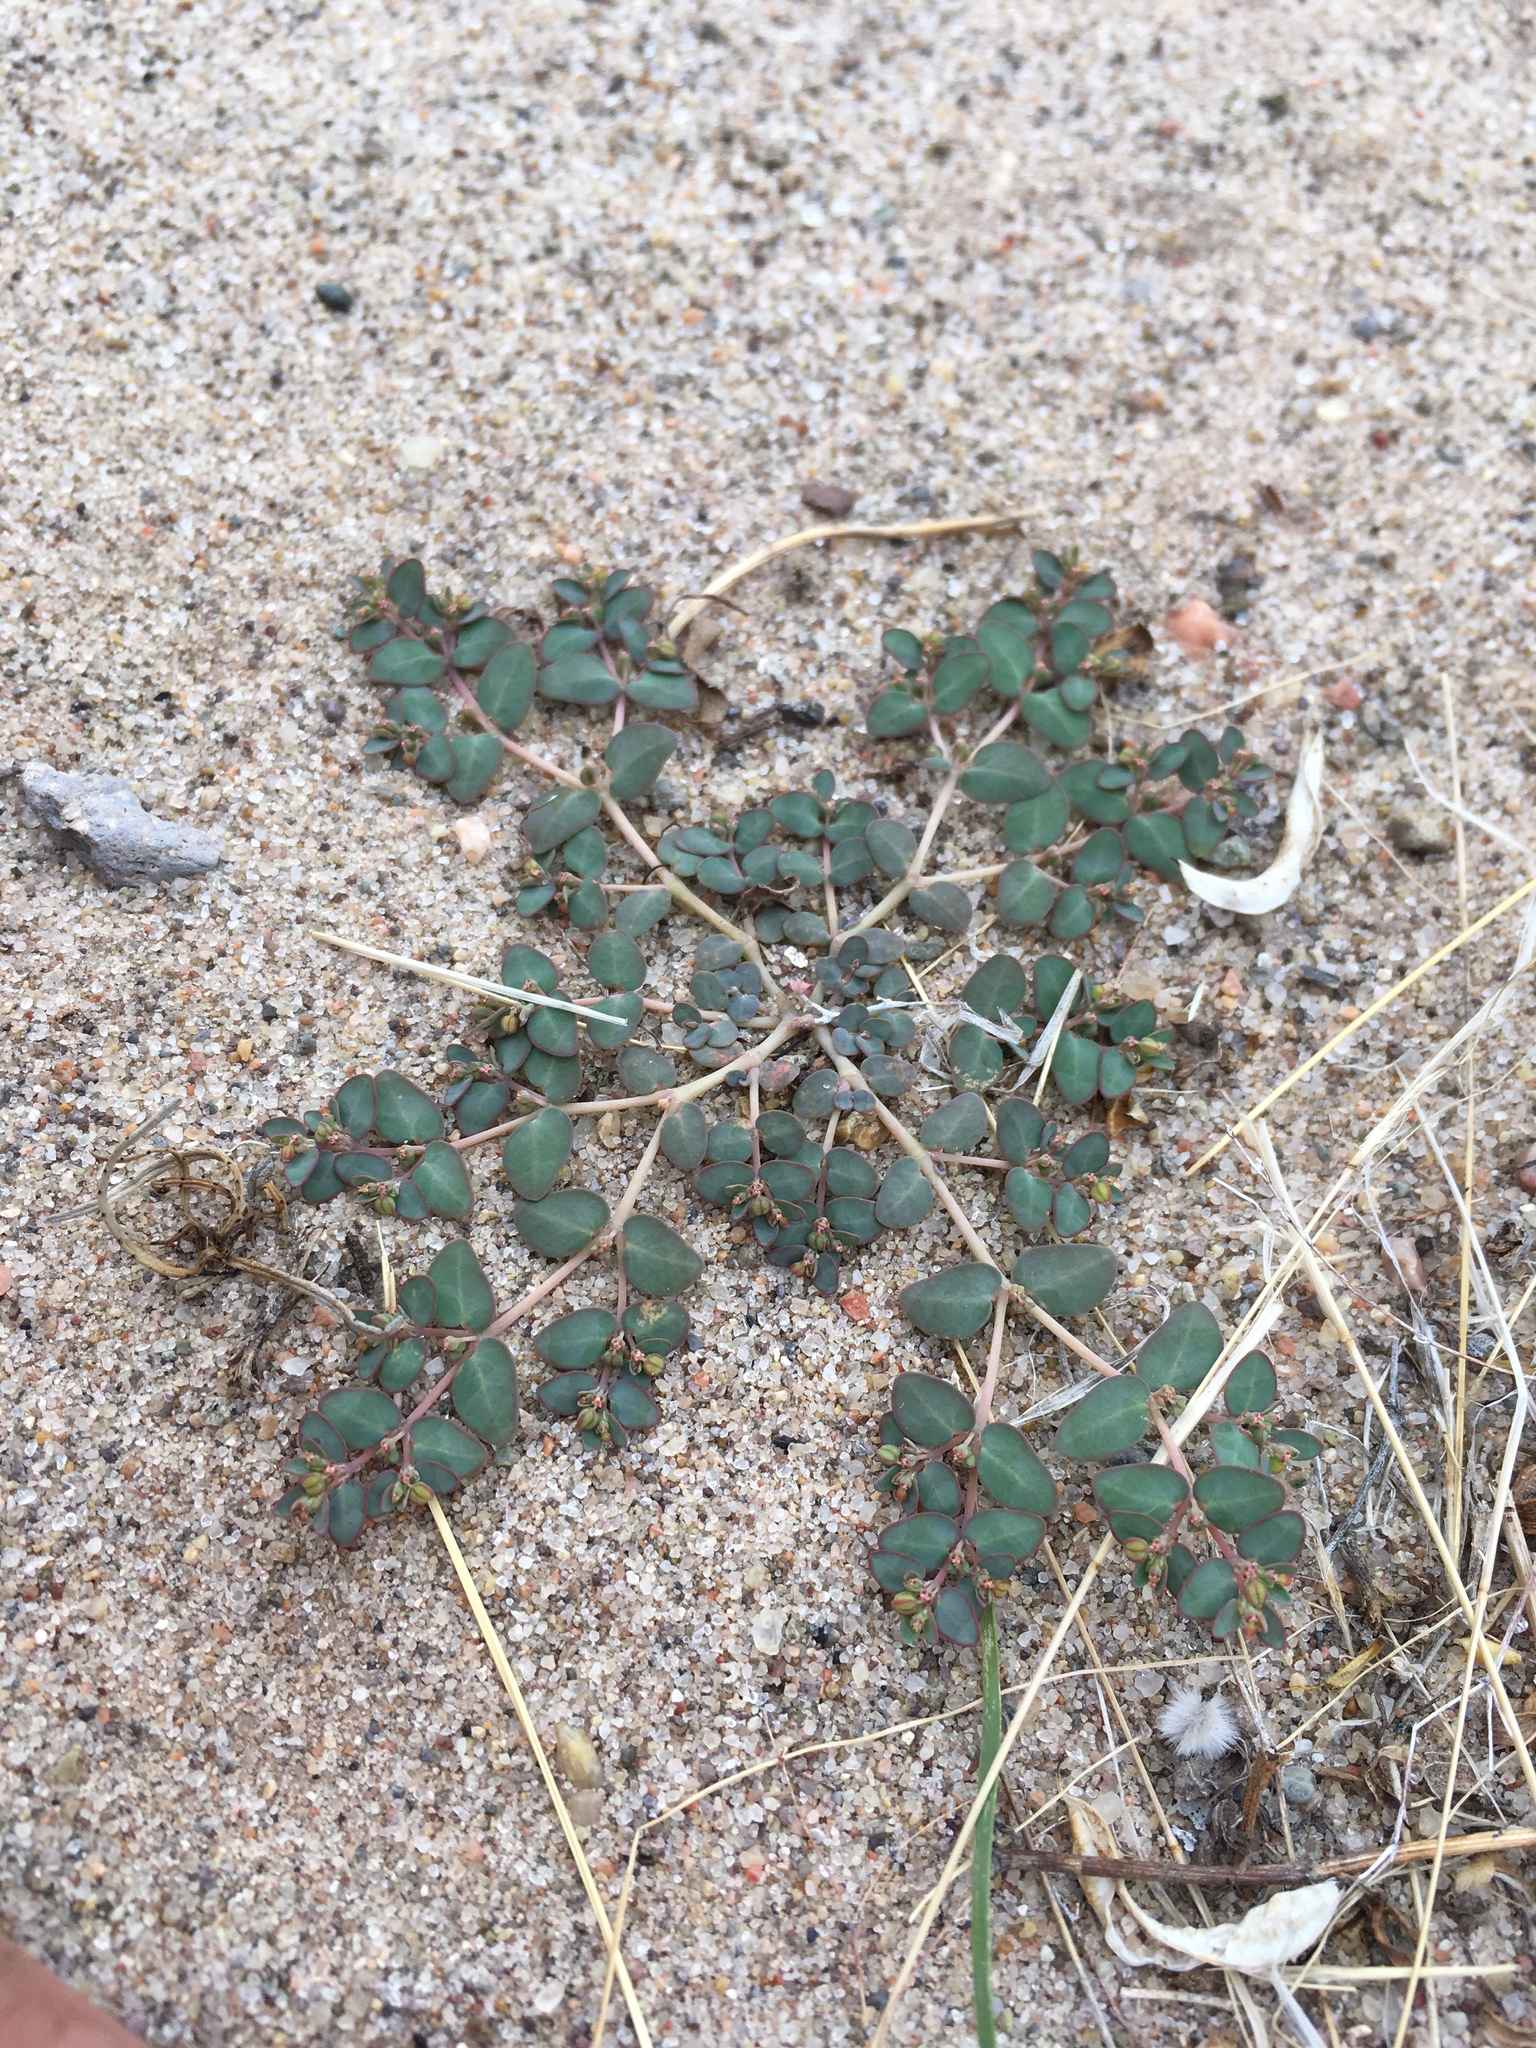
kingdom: Plantae
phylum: Tracheophyta
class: Magnoliopsida
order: Malpighiales
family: Euphorbiaceae
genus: Euphorbia
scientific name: Euphorbia micromera
